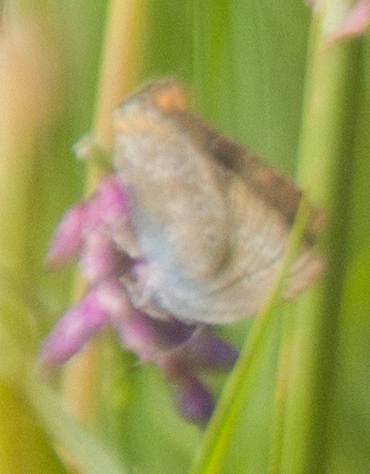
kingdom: Animalia
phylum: Arthropoda
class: Insecta
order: Lepidoptera
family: Lycaenidae
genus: Plebejus
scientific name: Plebejus amanda
